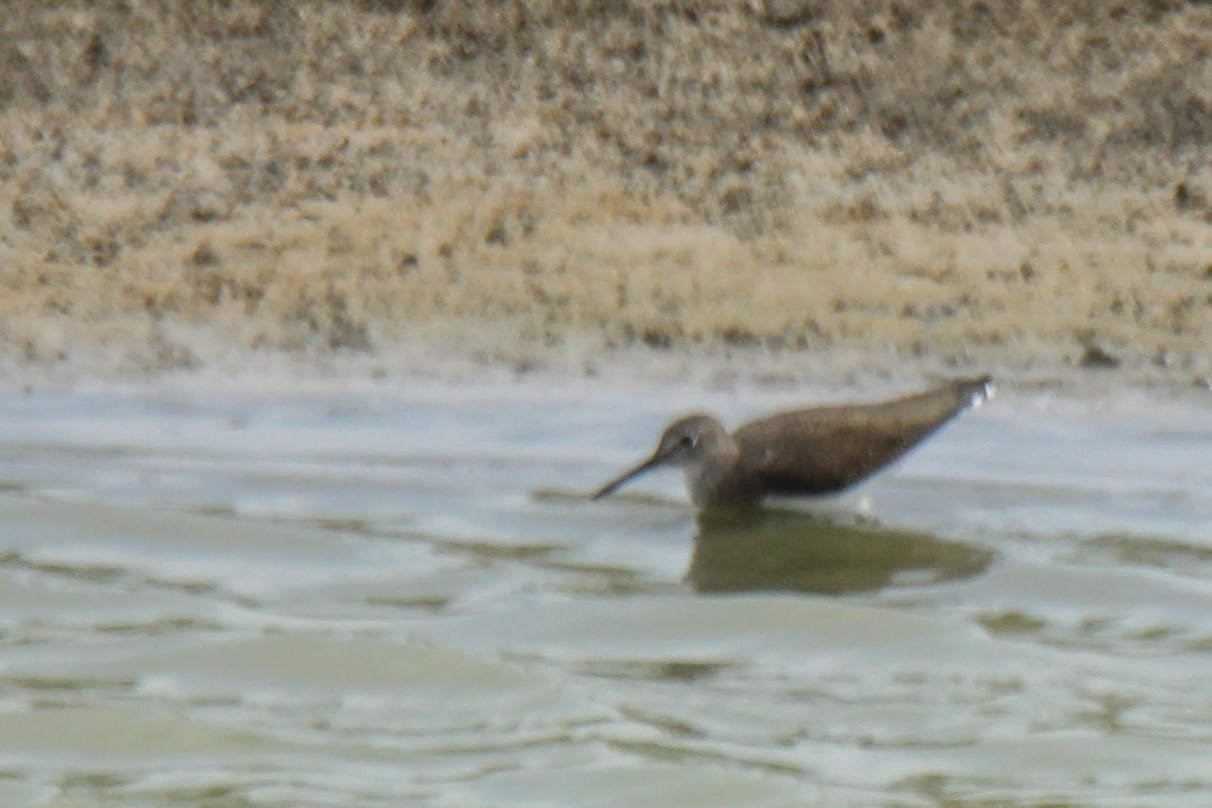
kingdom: Animalia
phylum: Chordata
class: Aves
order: Charadriiformes
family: Scolopacidae
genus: Tringa
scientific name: Tringa ochropus
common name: Green sandpiper
